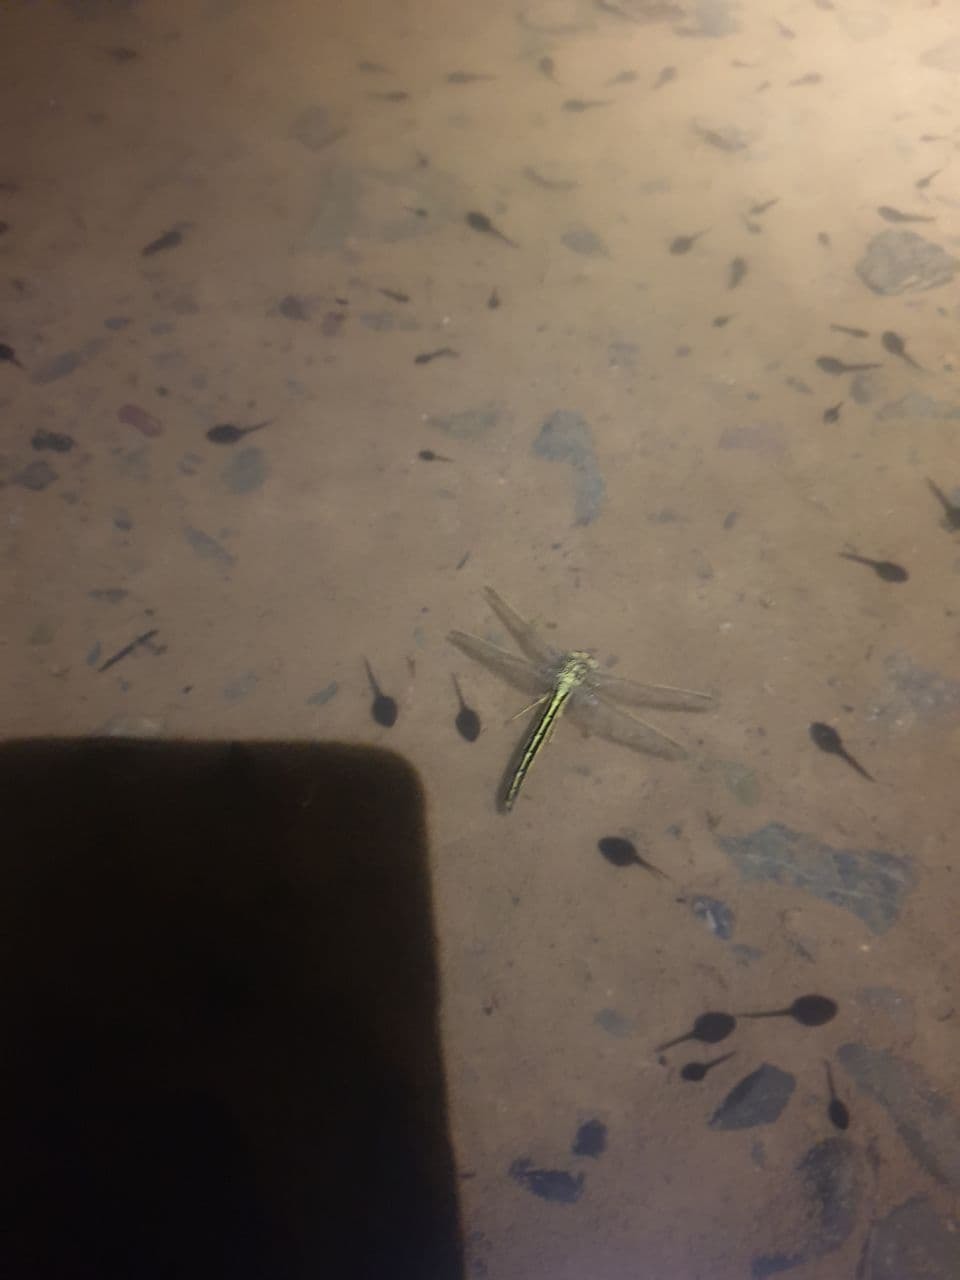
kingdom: Animalia
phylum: Arthropoda
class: Insecta
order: Odonata
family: Gomphidae
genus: Gomphus
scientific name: Gomphus vulgatissimus
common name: Club-tailed dragonfly
